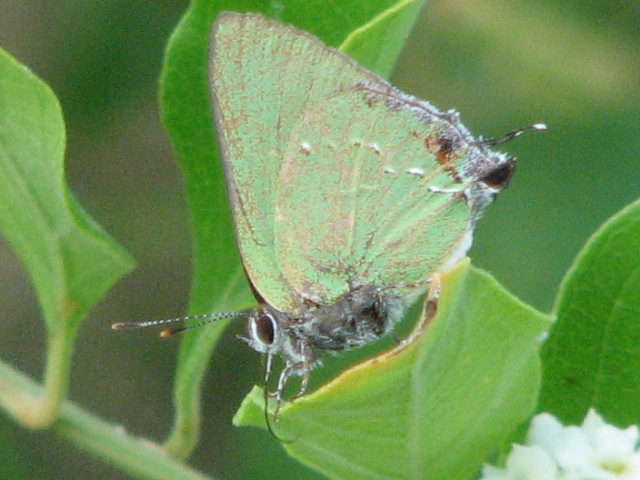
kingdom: Animalia
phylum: Arthropoda
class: Insecta
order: Lepidoptera
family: Lycaenidae
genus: Cyanophrys
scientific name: Cyanophrys miserabilis
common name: Clench's greenstreak
